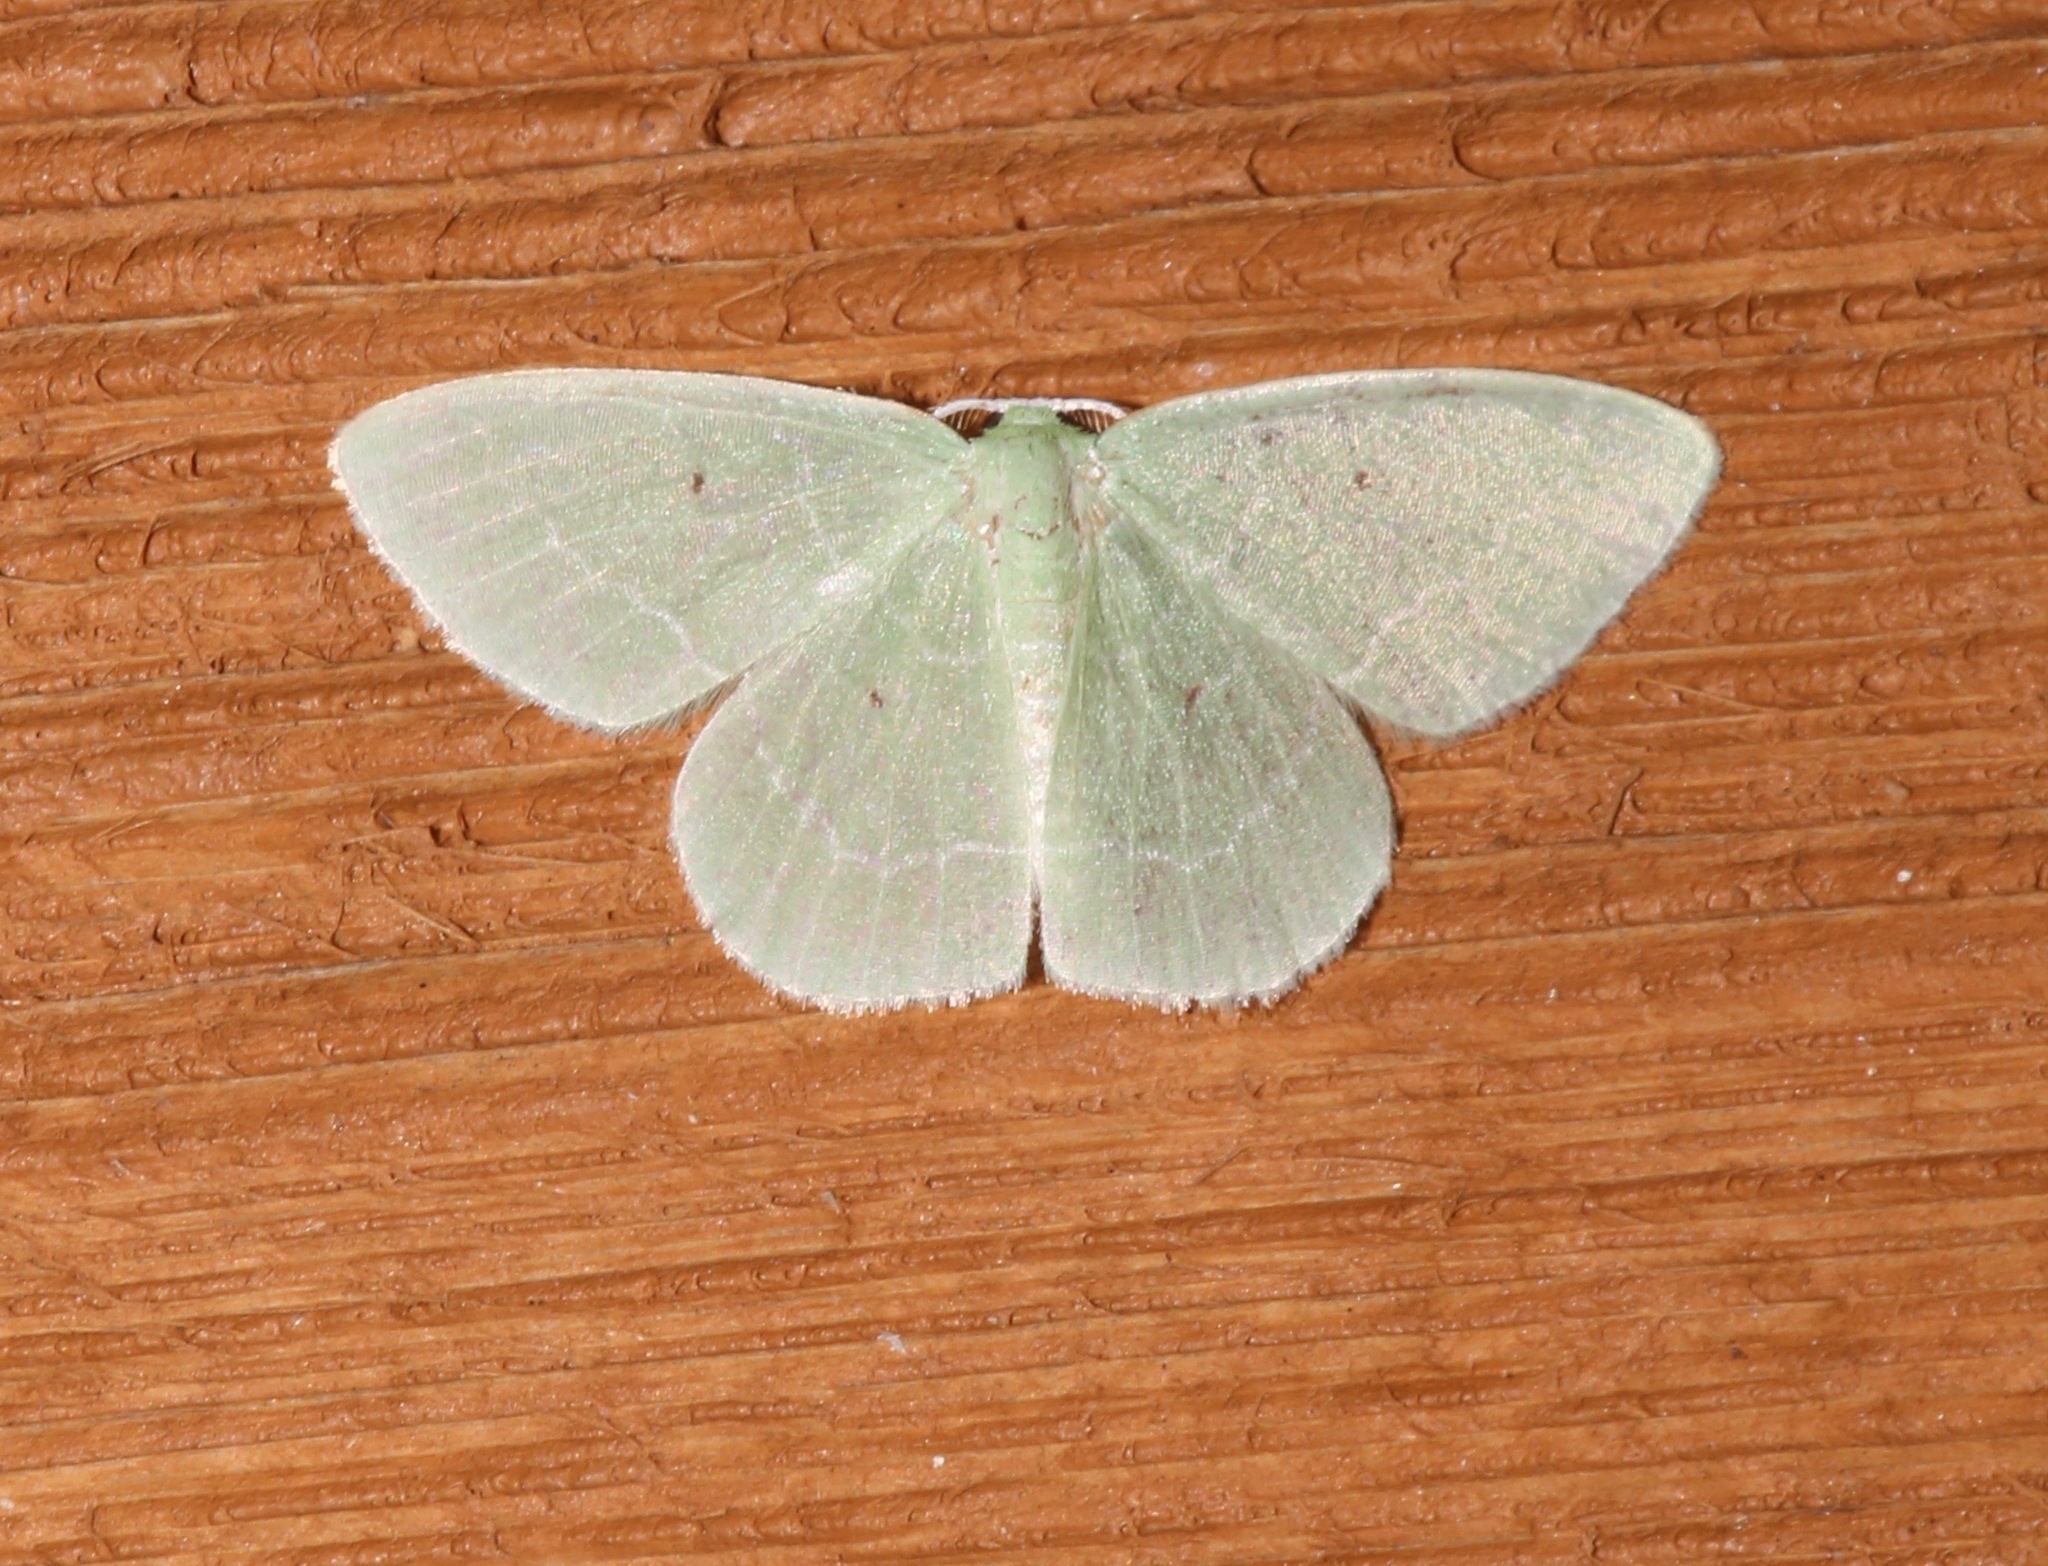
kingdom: Animalia
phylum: Arthropoda
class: Insecta
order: Lepidoptera
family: Geometridae
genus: Nemoria
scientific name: Nemoria elfa
